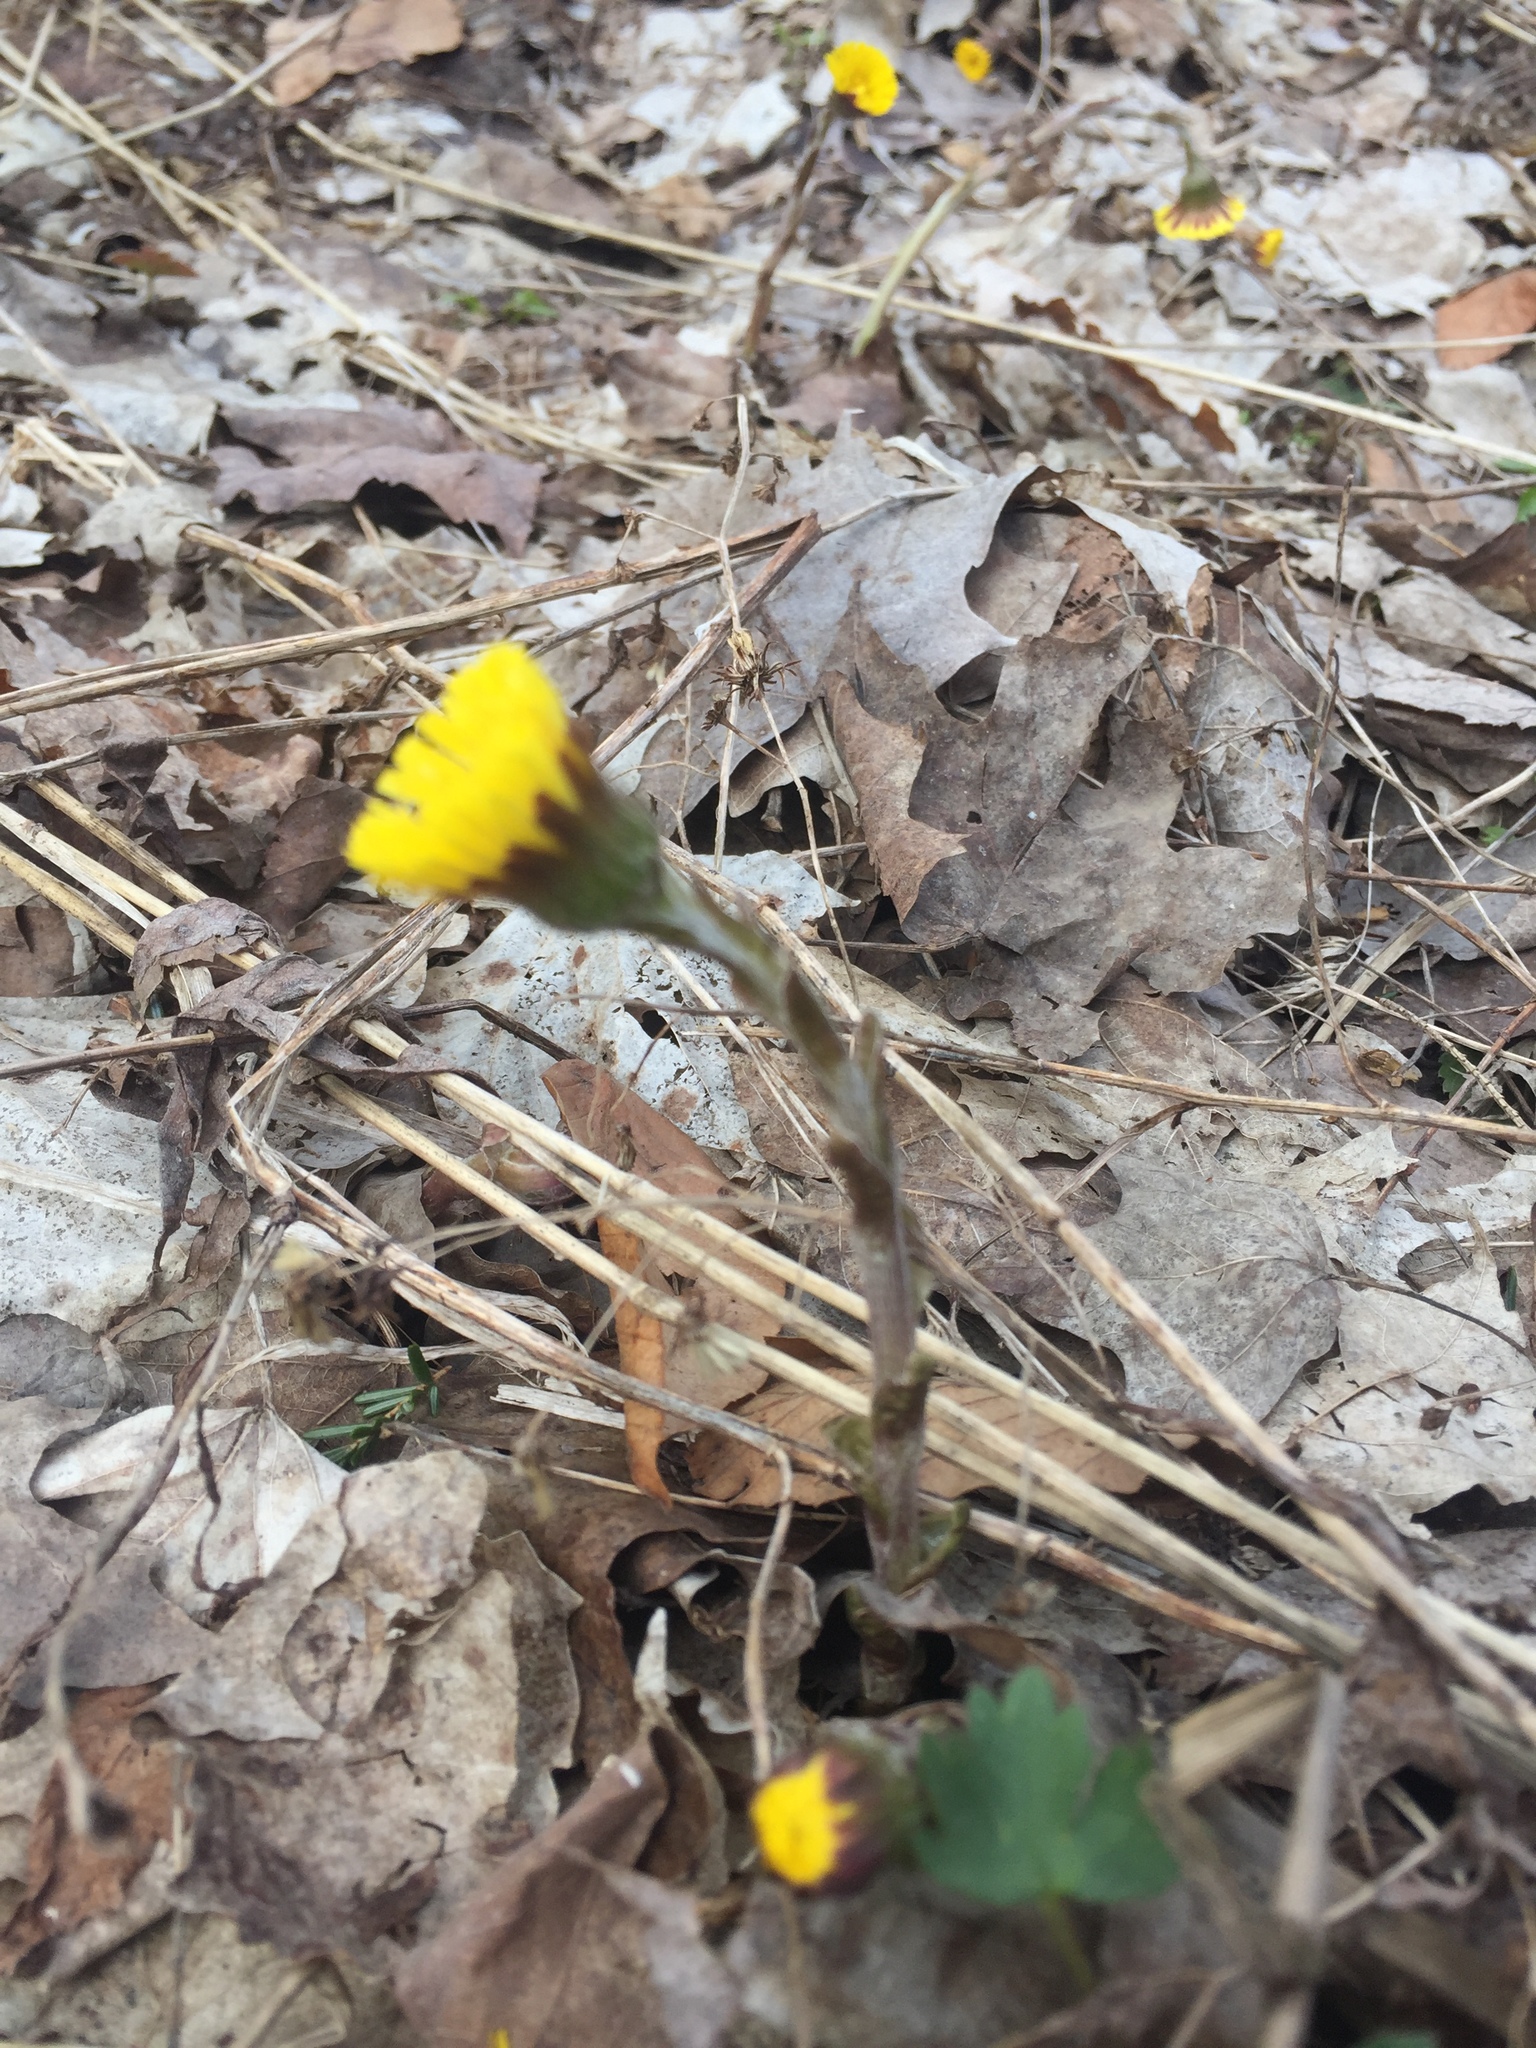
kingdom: Plantae
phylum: Tracheophyta
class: Magnoliopsida
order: Asterales
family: Asteraceae
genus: Tussilago
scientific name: Tussilago farfara
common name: Coltsfoot
